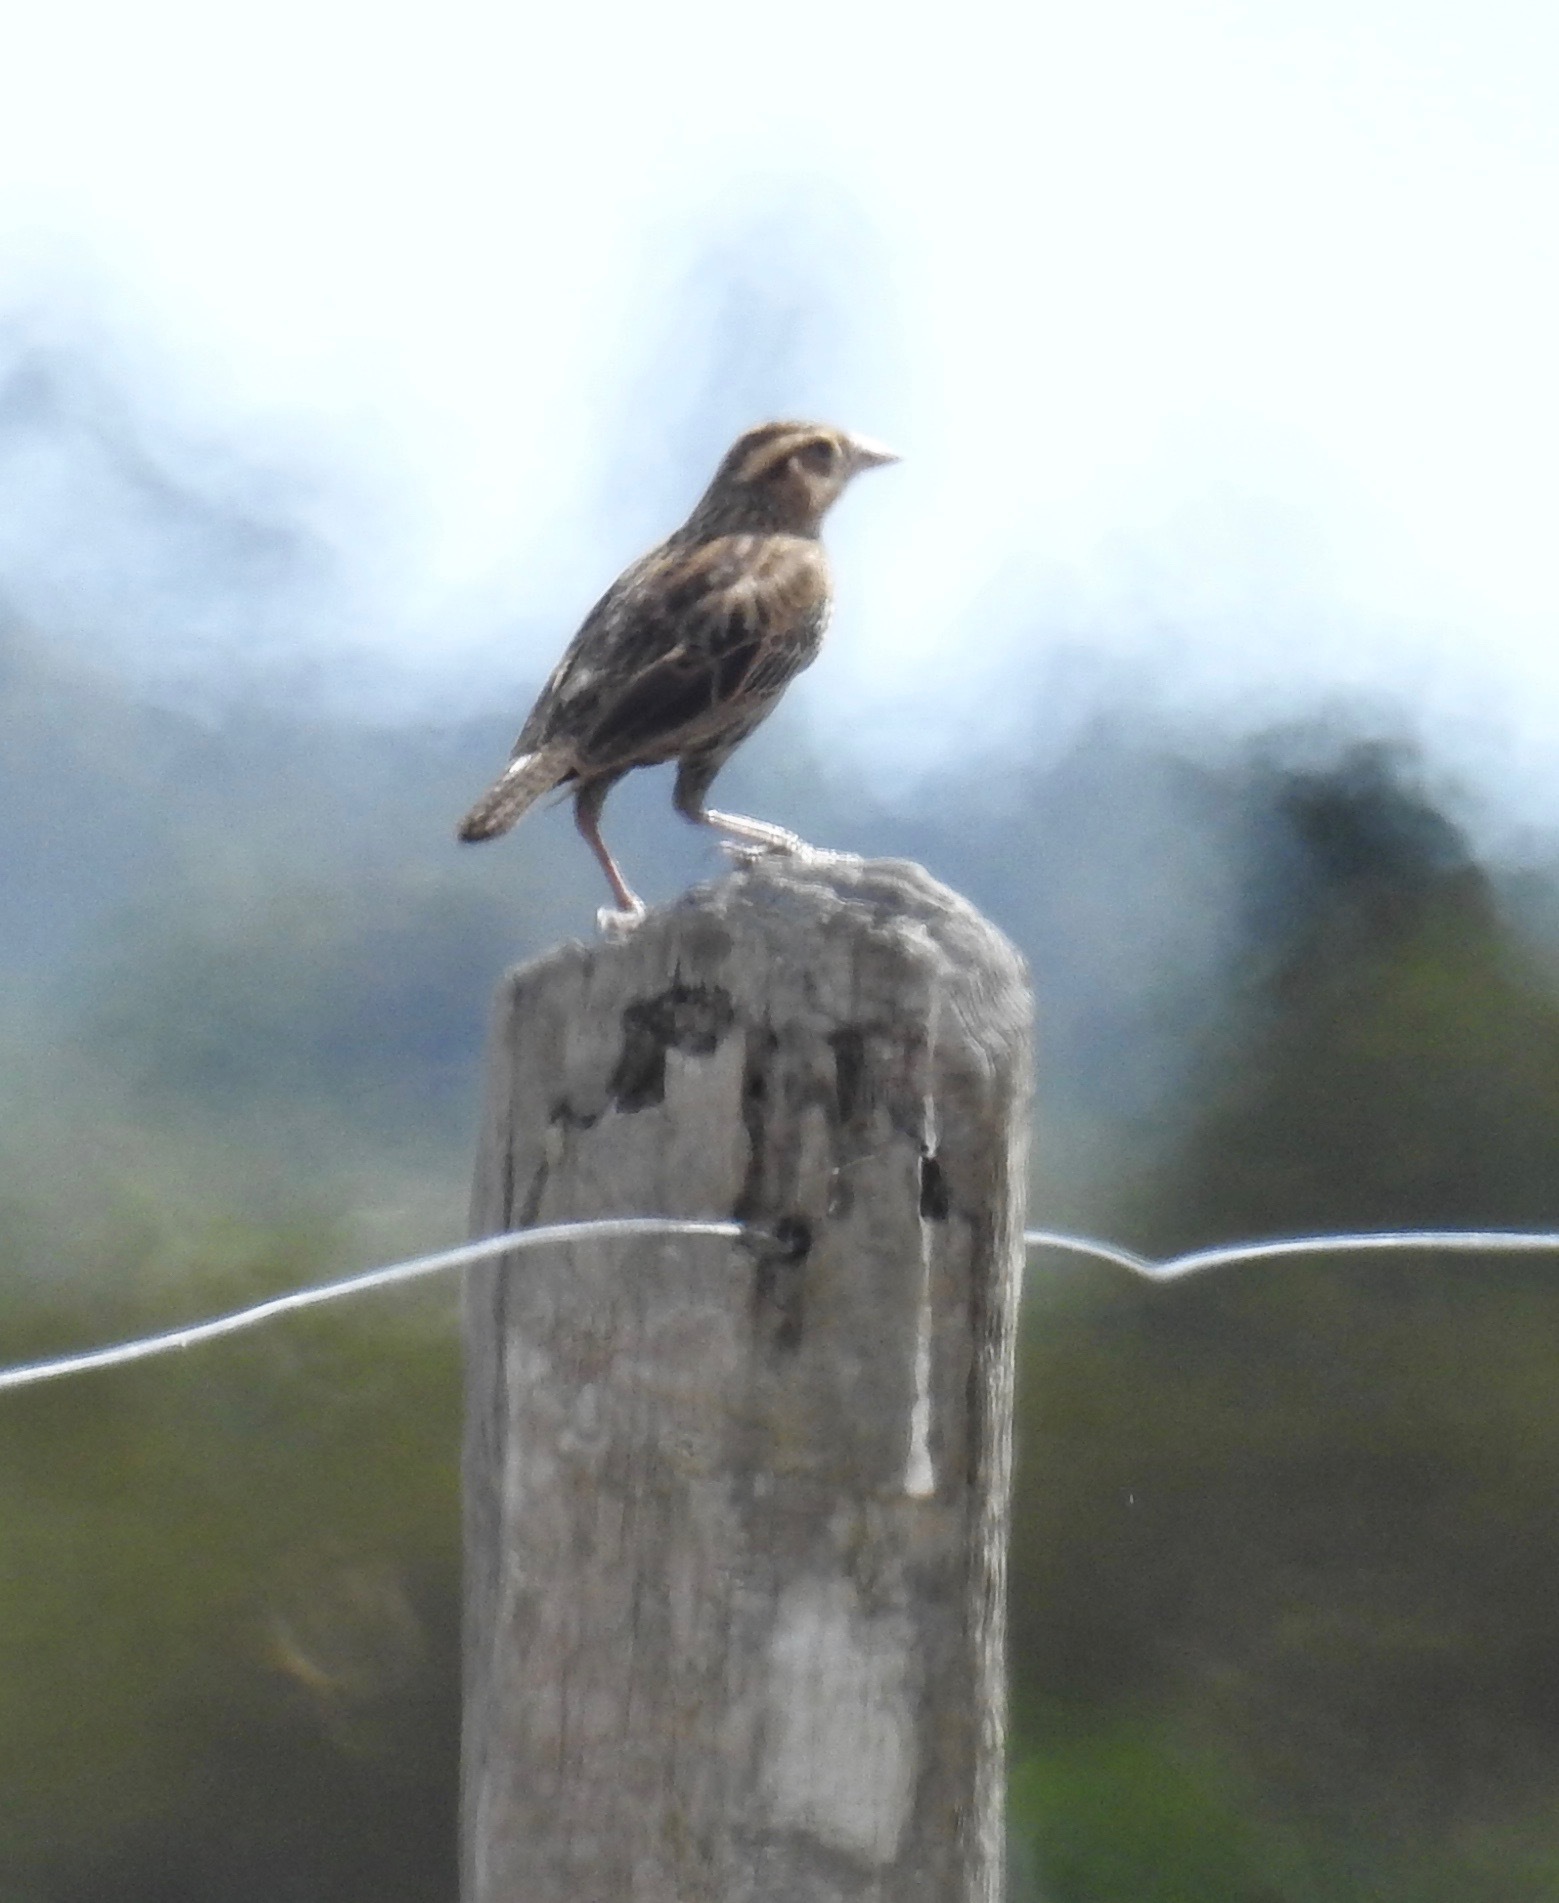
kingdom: Animalia
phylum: Chordata
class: Aves
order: Passeriformes
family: Icteridae
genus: Sturnella
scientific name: Sturnella superciliaris
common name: White-browed blackbird
